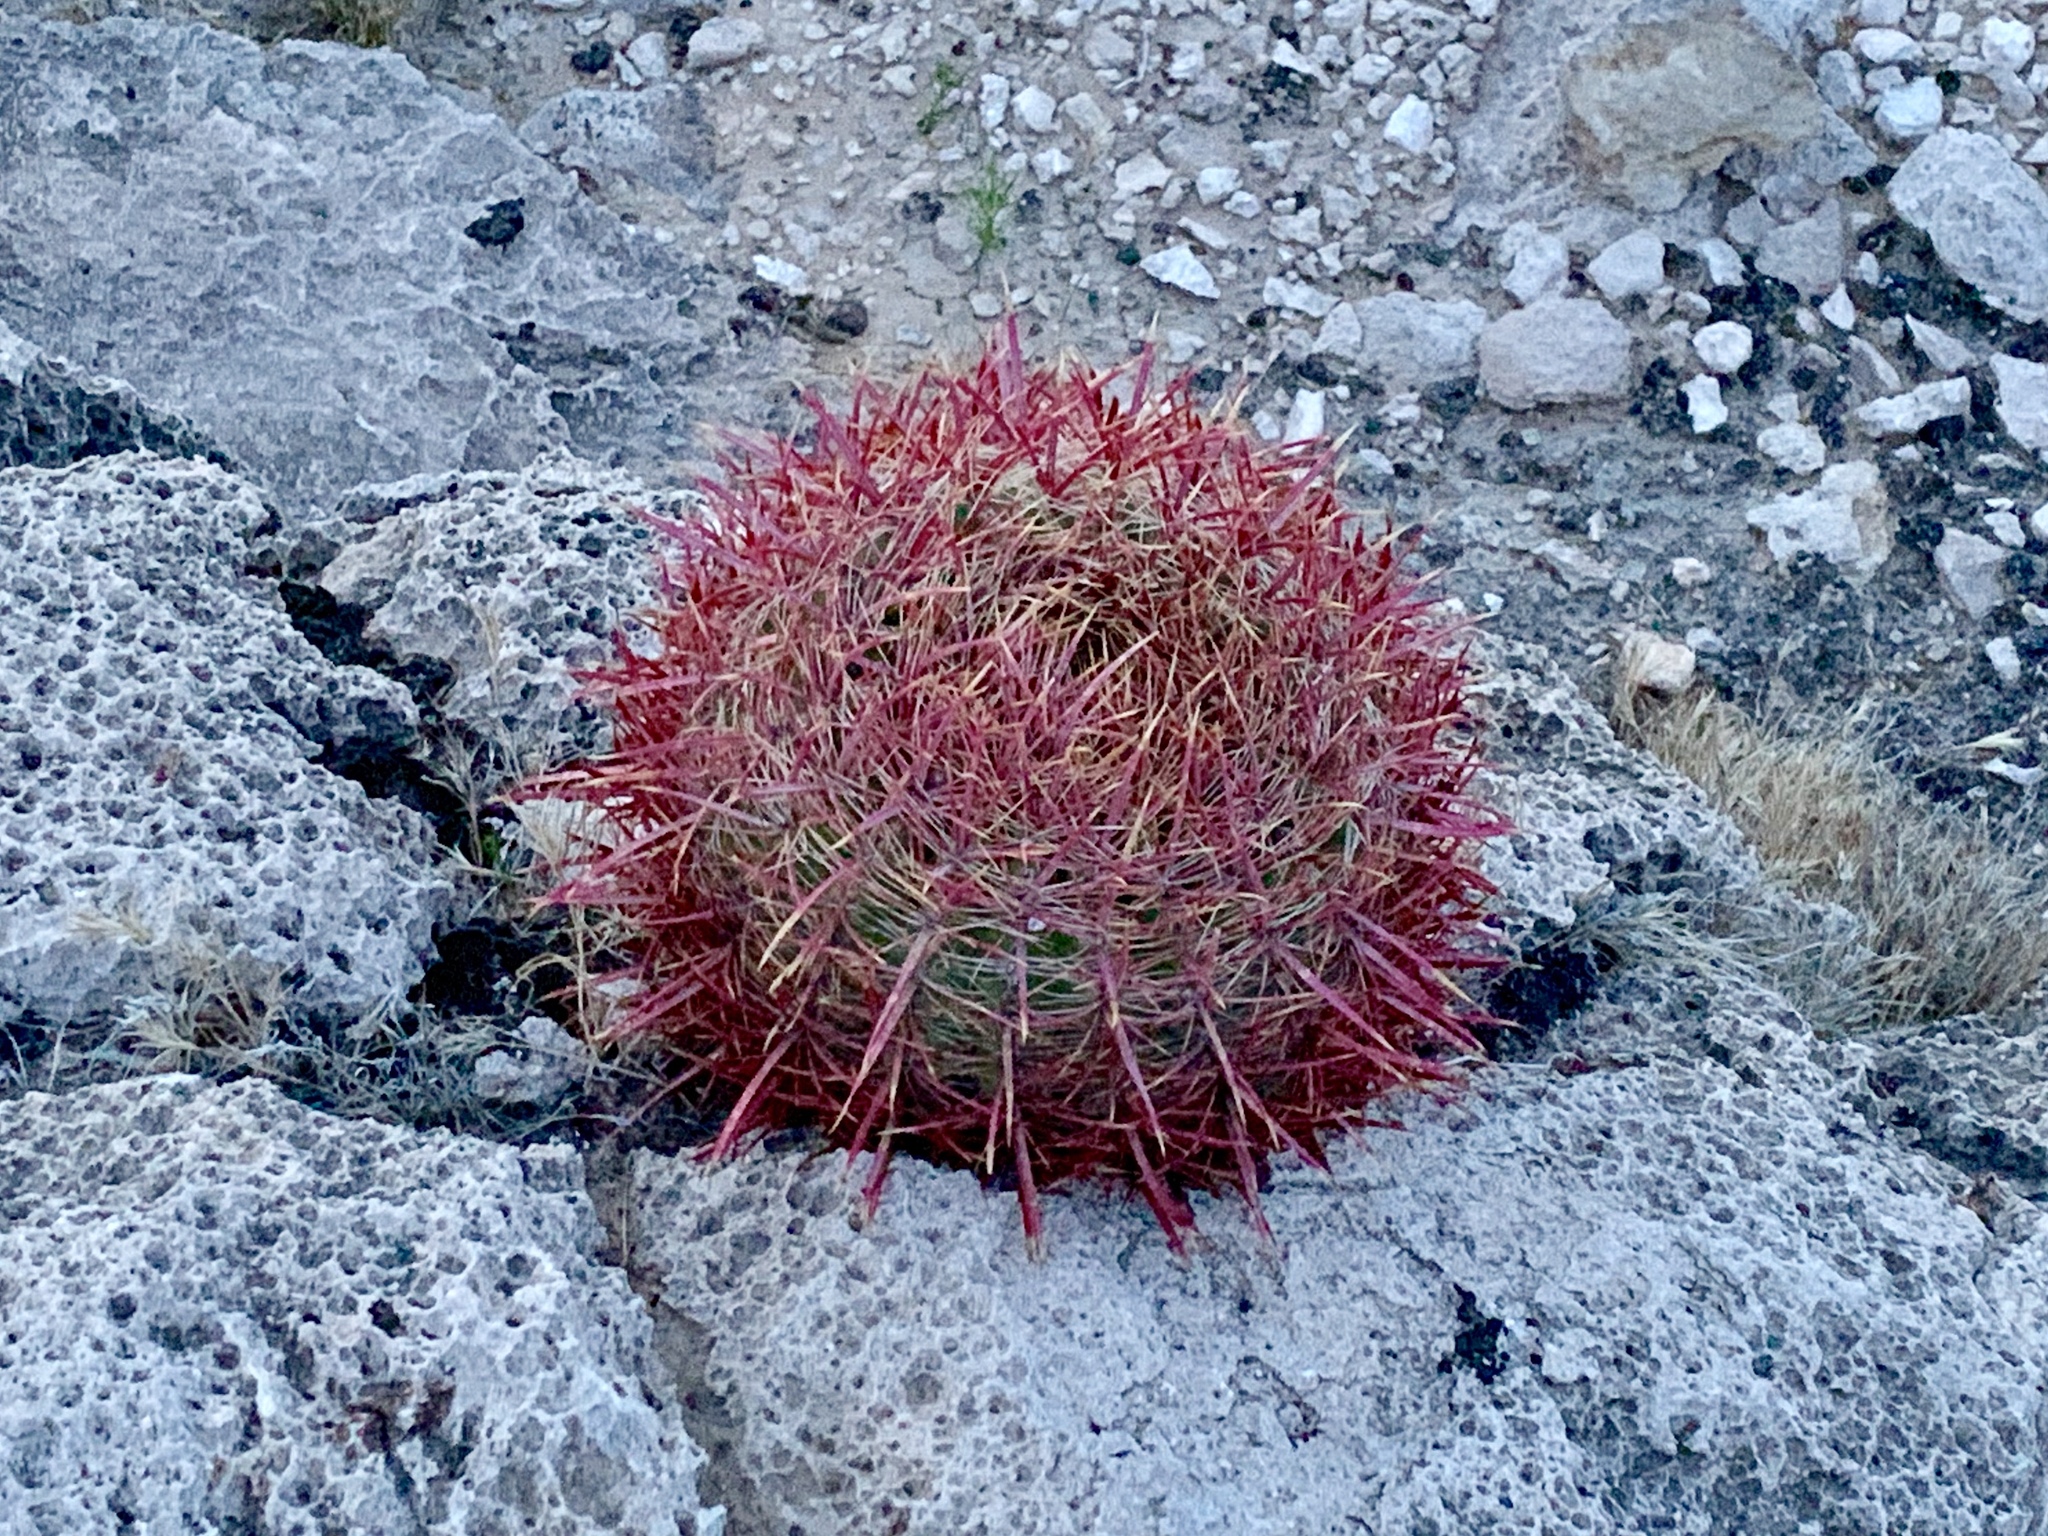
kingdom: Plantae
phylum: Tracheophyta
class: Magnoliopsida
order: Caryophyllales
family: Cactaceae
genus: Ferocactus
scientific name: Ferocactus cylindraceus
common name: California barrel cactus
